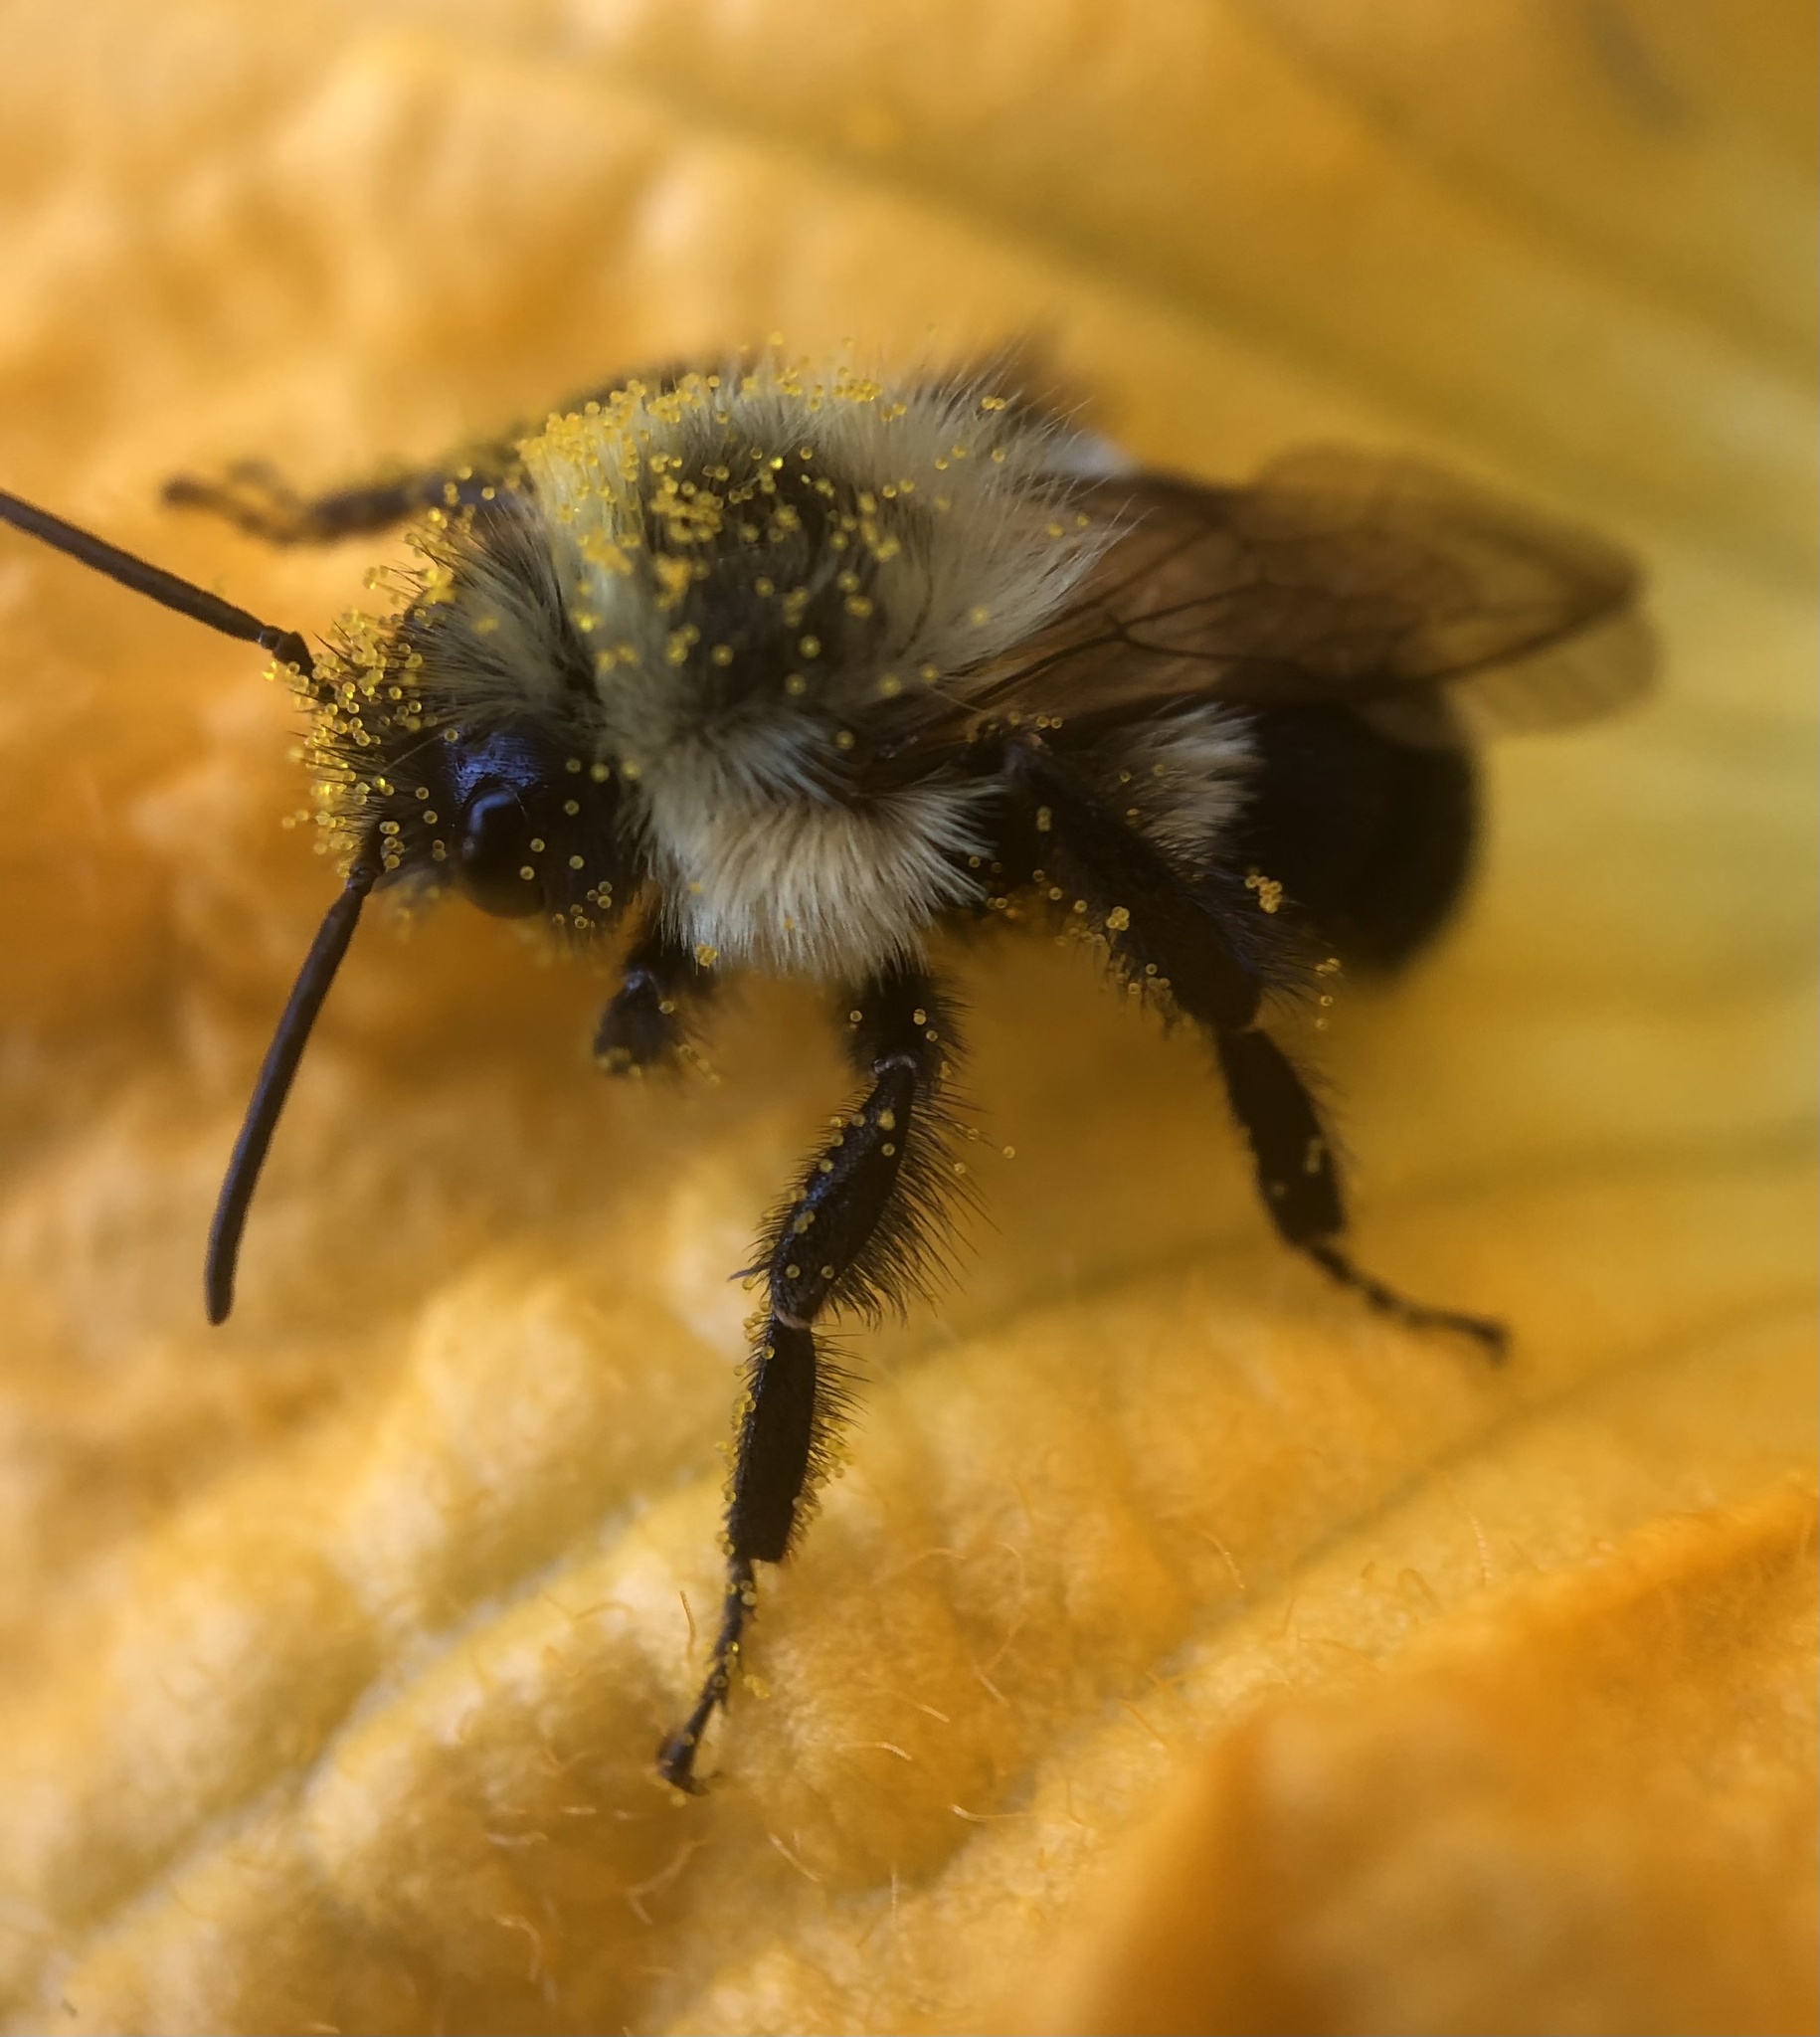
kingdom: Animalia
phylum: Arthropoda
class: Insecta
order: Hymenoptera
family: Apidae
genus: Bombus
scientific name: Bombus impatiens
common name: Common eastern bumble bee
